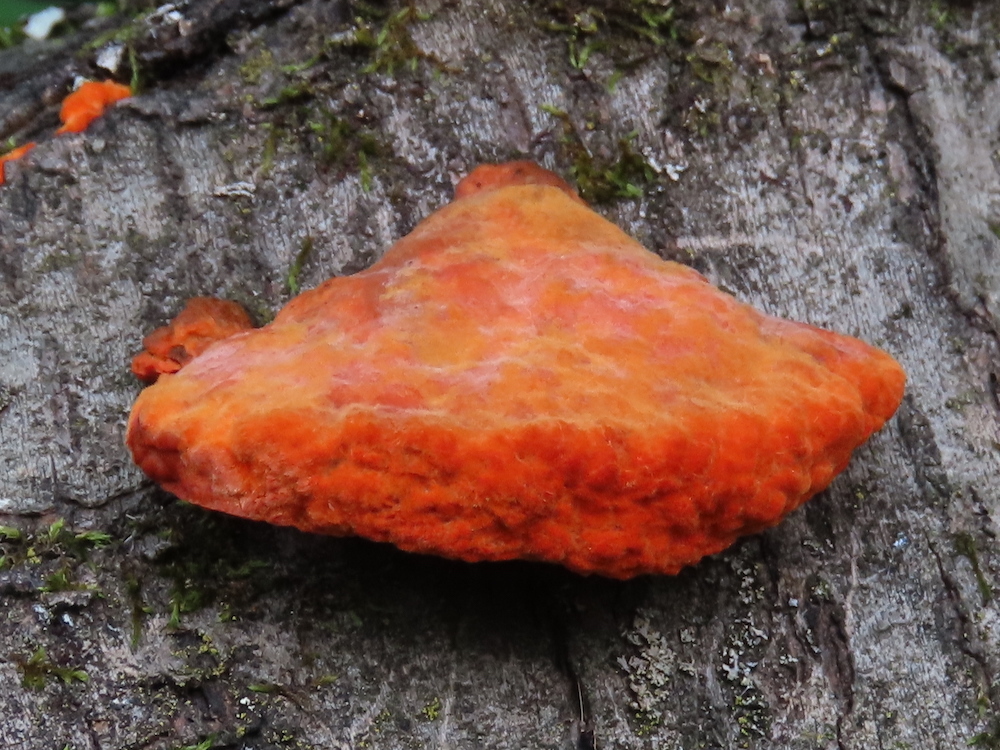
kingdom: Fungi
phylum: Basidiomycota
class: Agaricomycetes
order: Polyporales
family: Polyporaceae
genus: Trametes
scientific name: Trametes cinnabarina
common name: Northern cinnabar polypore
